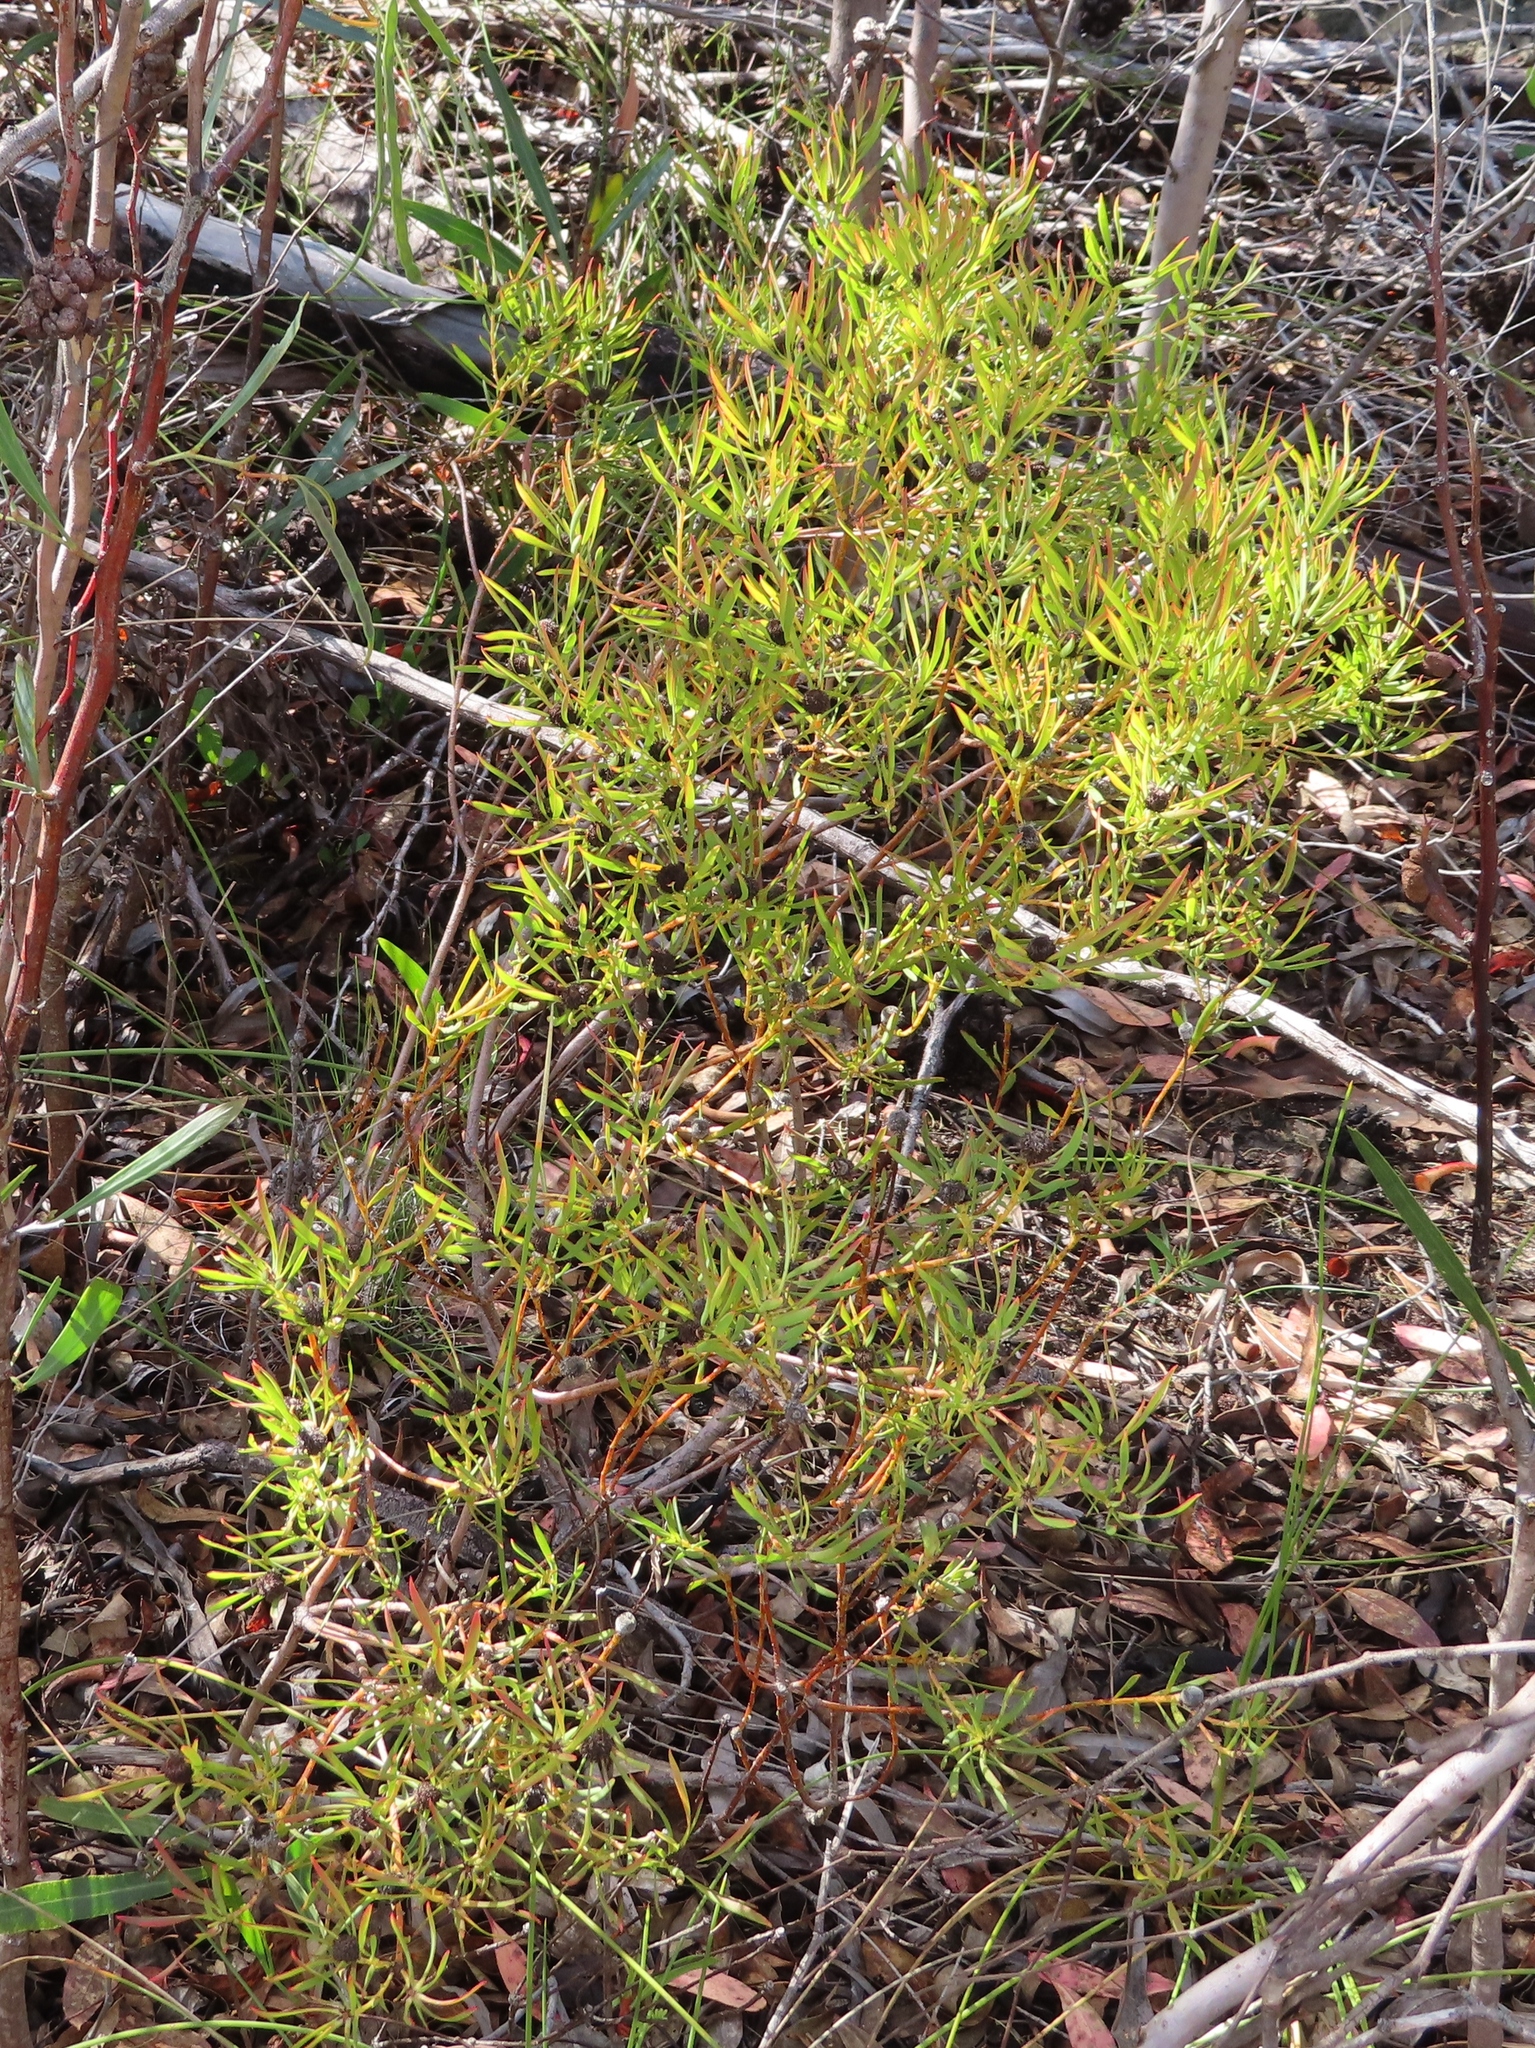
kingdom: Plantae
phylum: Tracheophyta
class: Magnoliopsida
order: Proteales
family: Proteaceae
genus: Leucadendron
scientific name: Leucadendron salignum
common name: Common sunshine conebush
